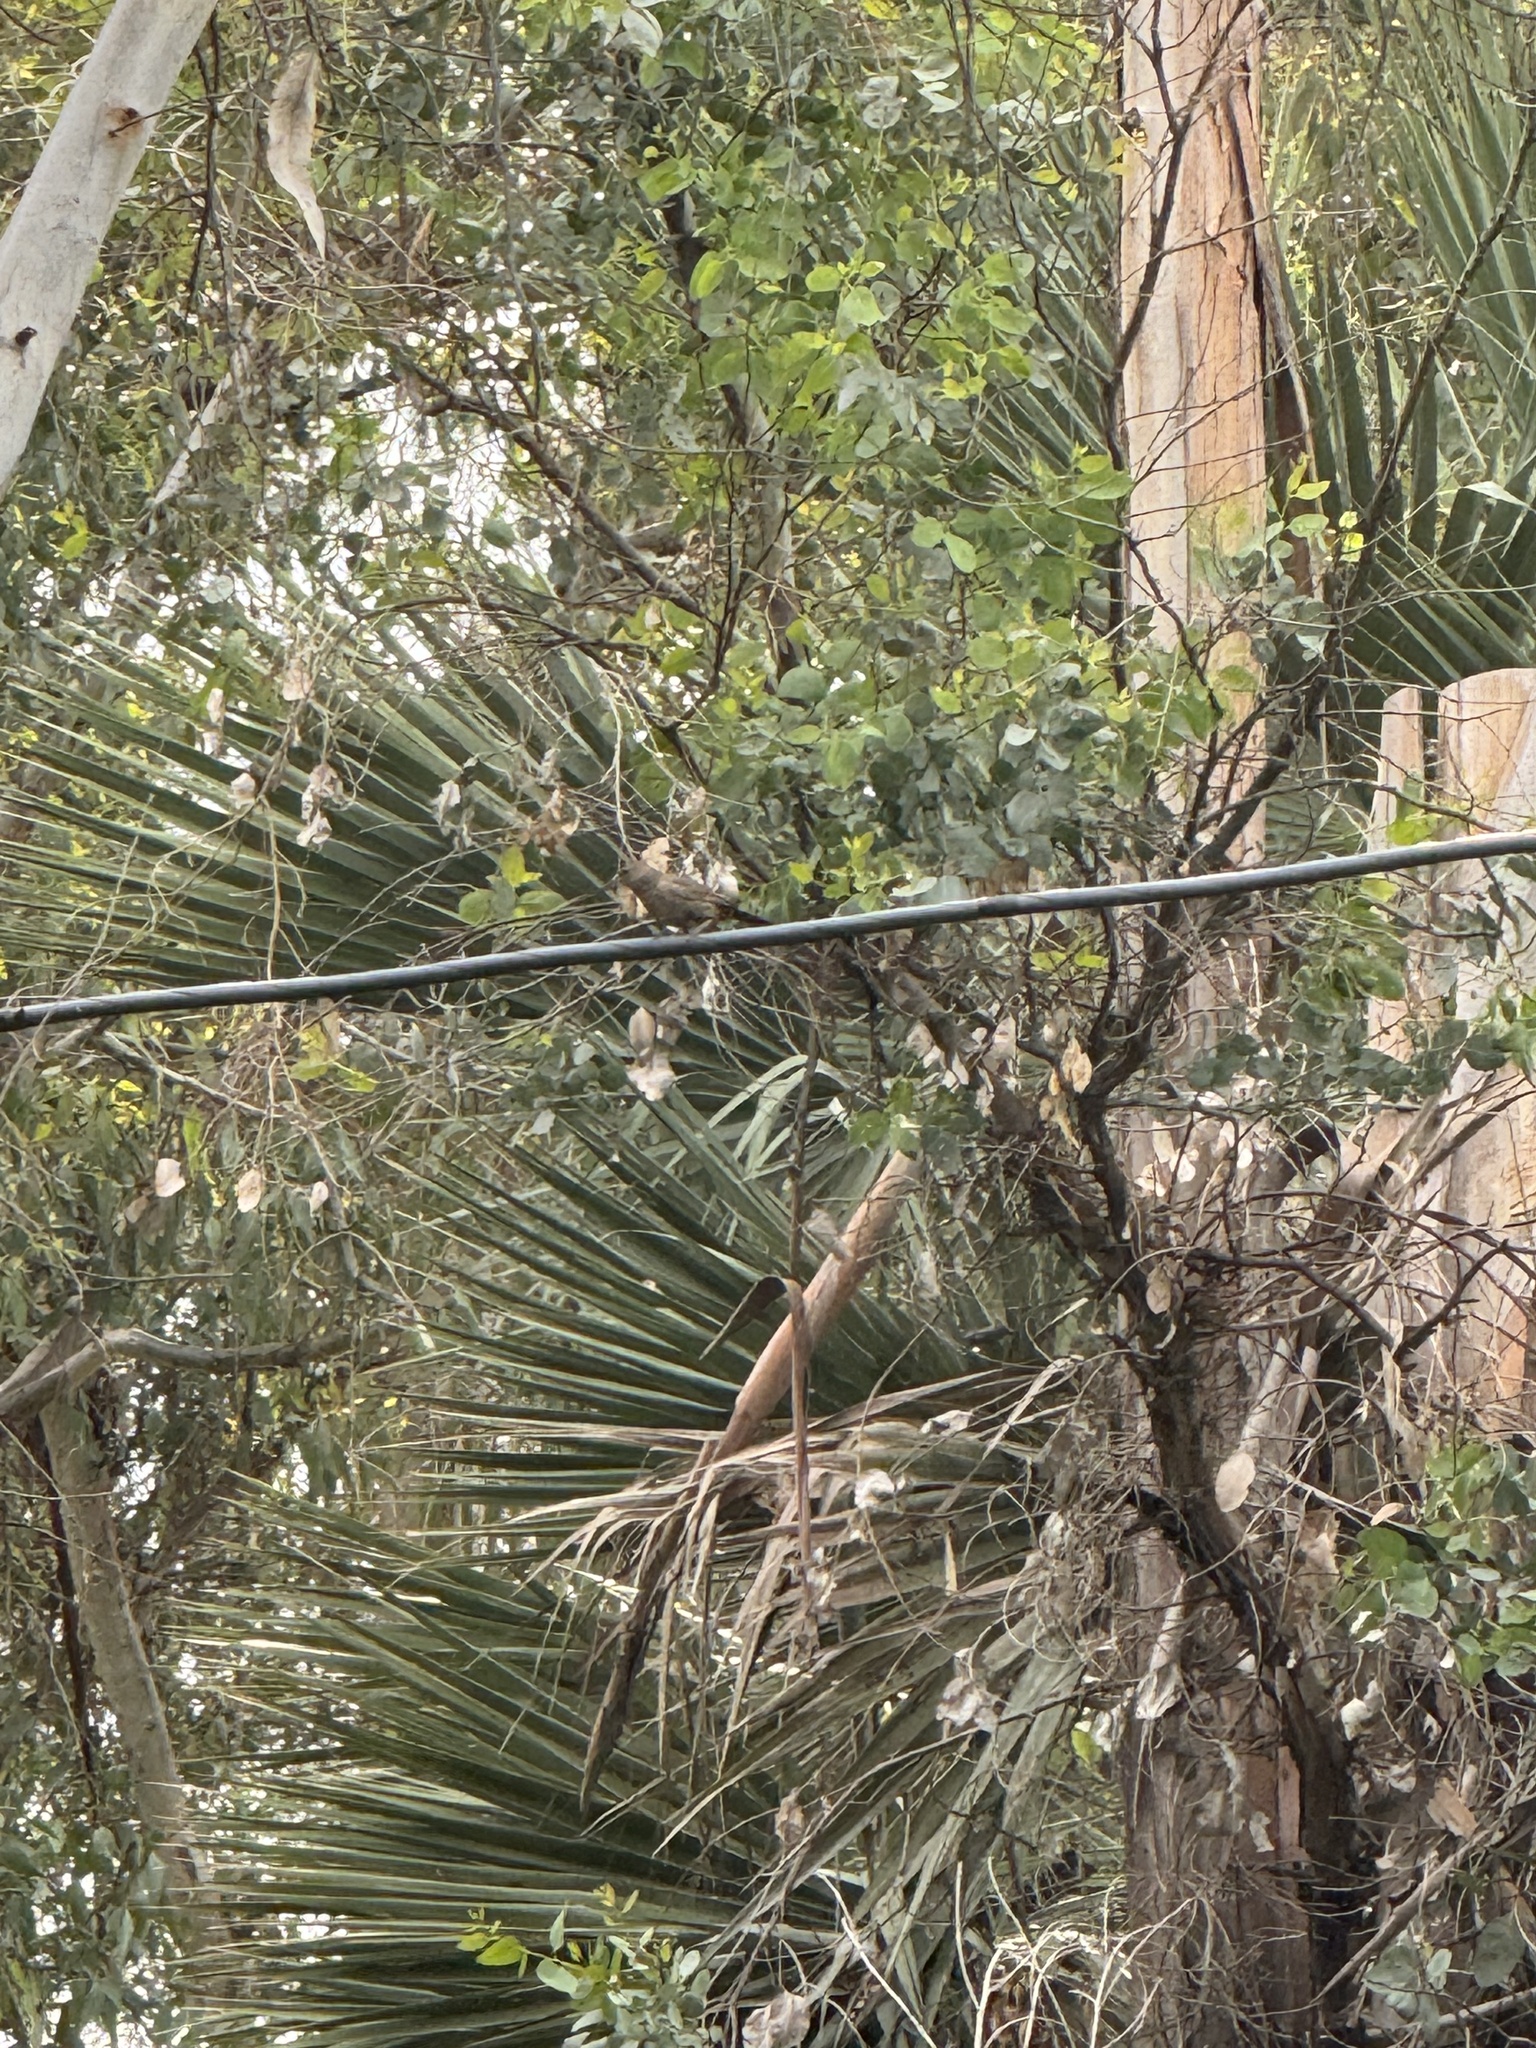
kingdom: Animalia
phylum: Chordata
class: Aves
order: Passeriformes
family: Passerellidae
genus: Melozone
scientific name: Melozone crissalis
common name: California towhee
